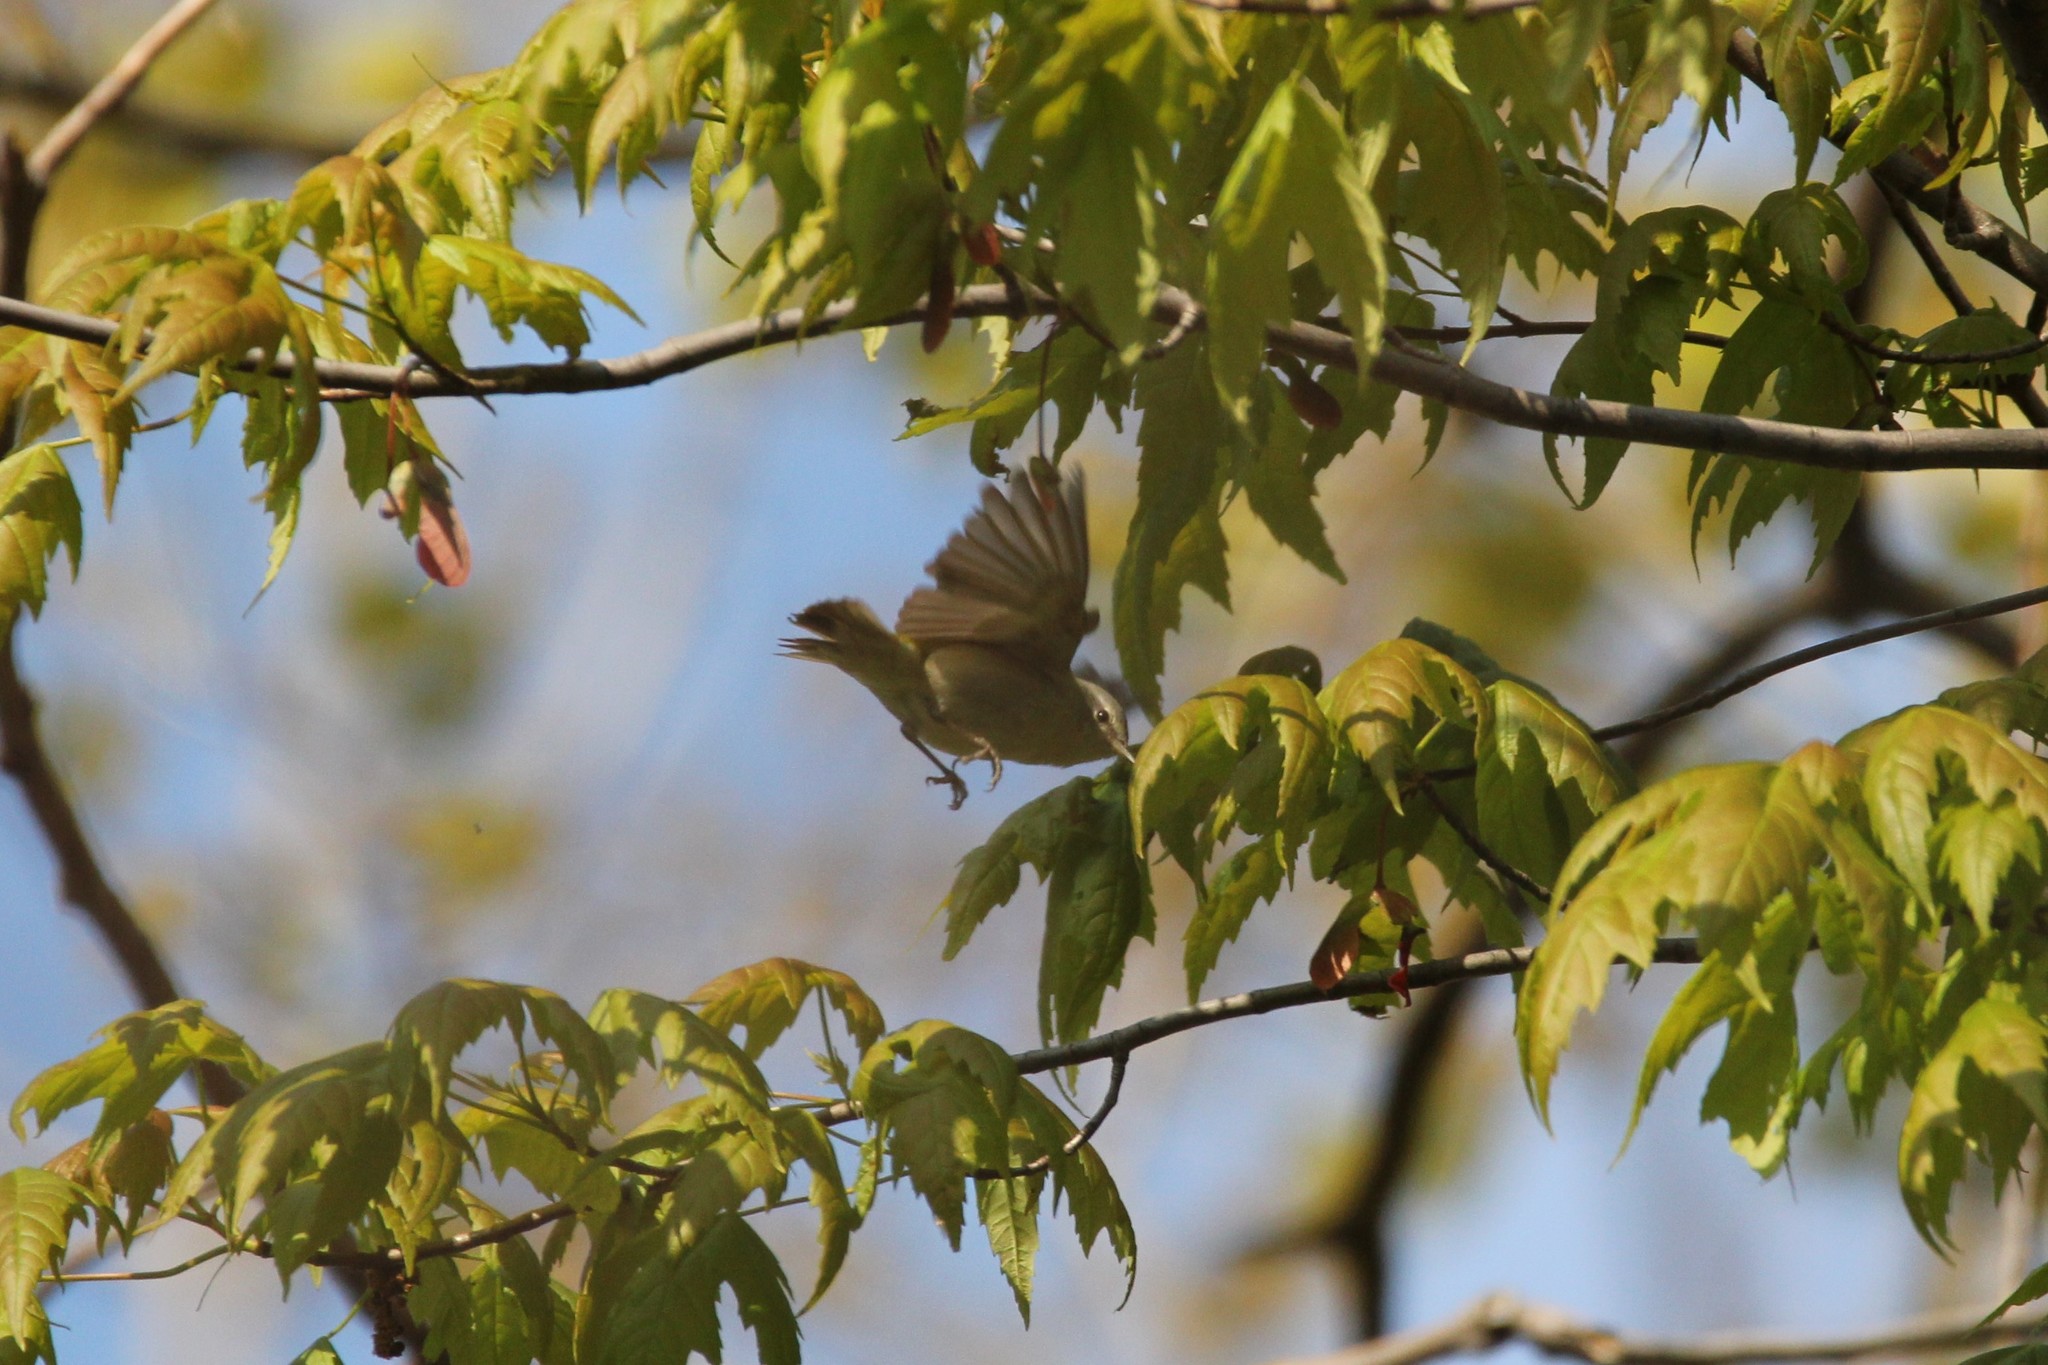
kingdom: Animalia
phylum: Chordata
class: Aves
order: Passeriformes
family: Parulidae
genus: Leiothlypis
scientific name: Leiothlypis peregrina
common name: Tennessee warbler
